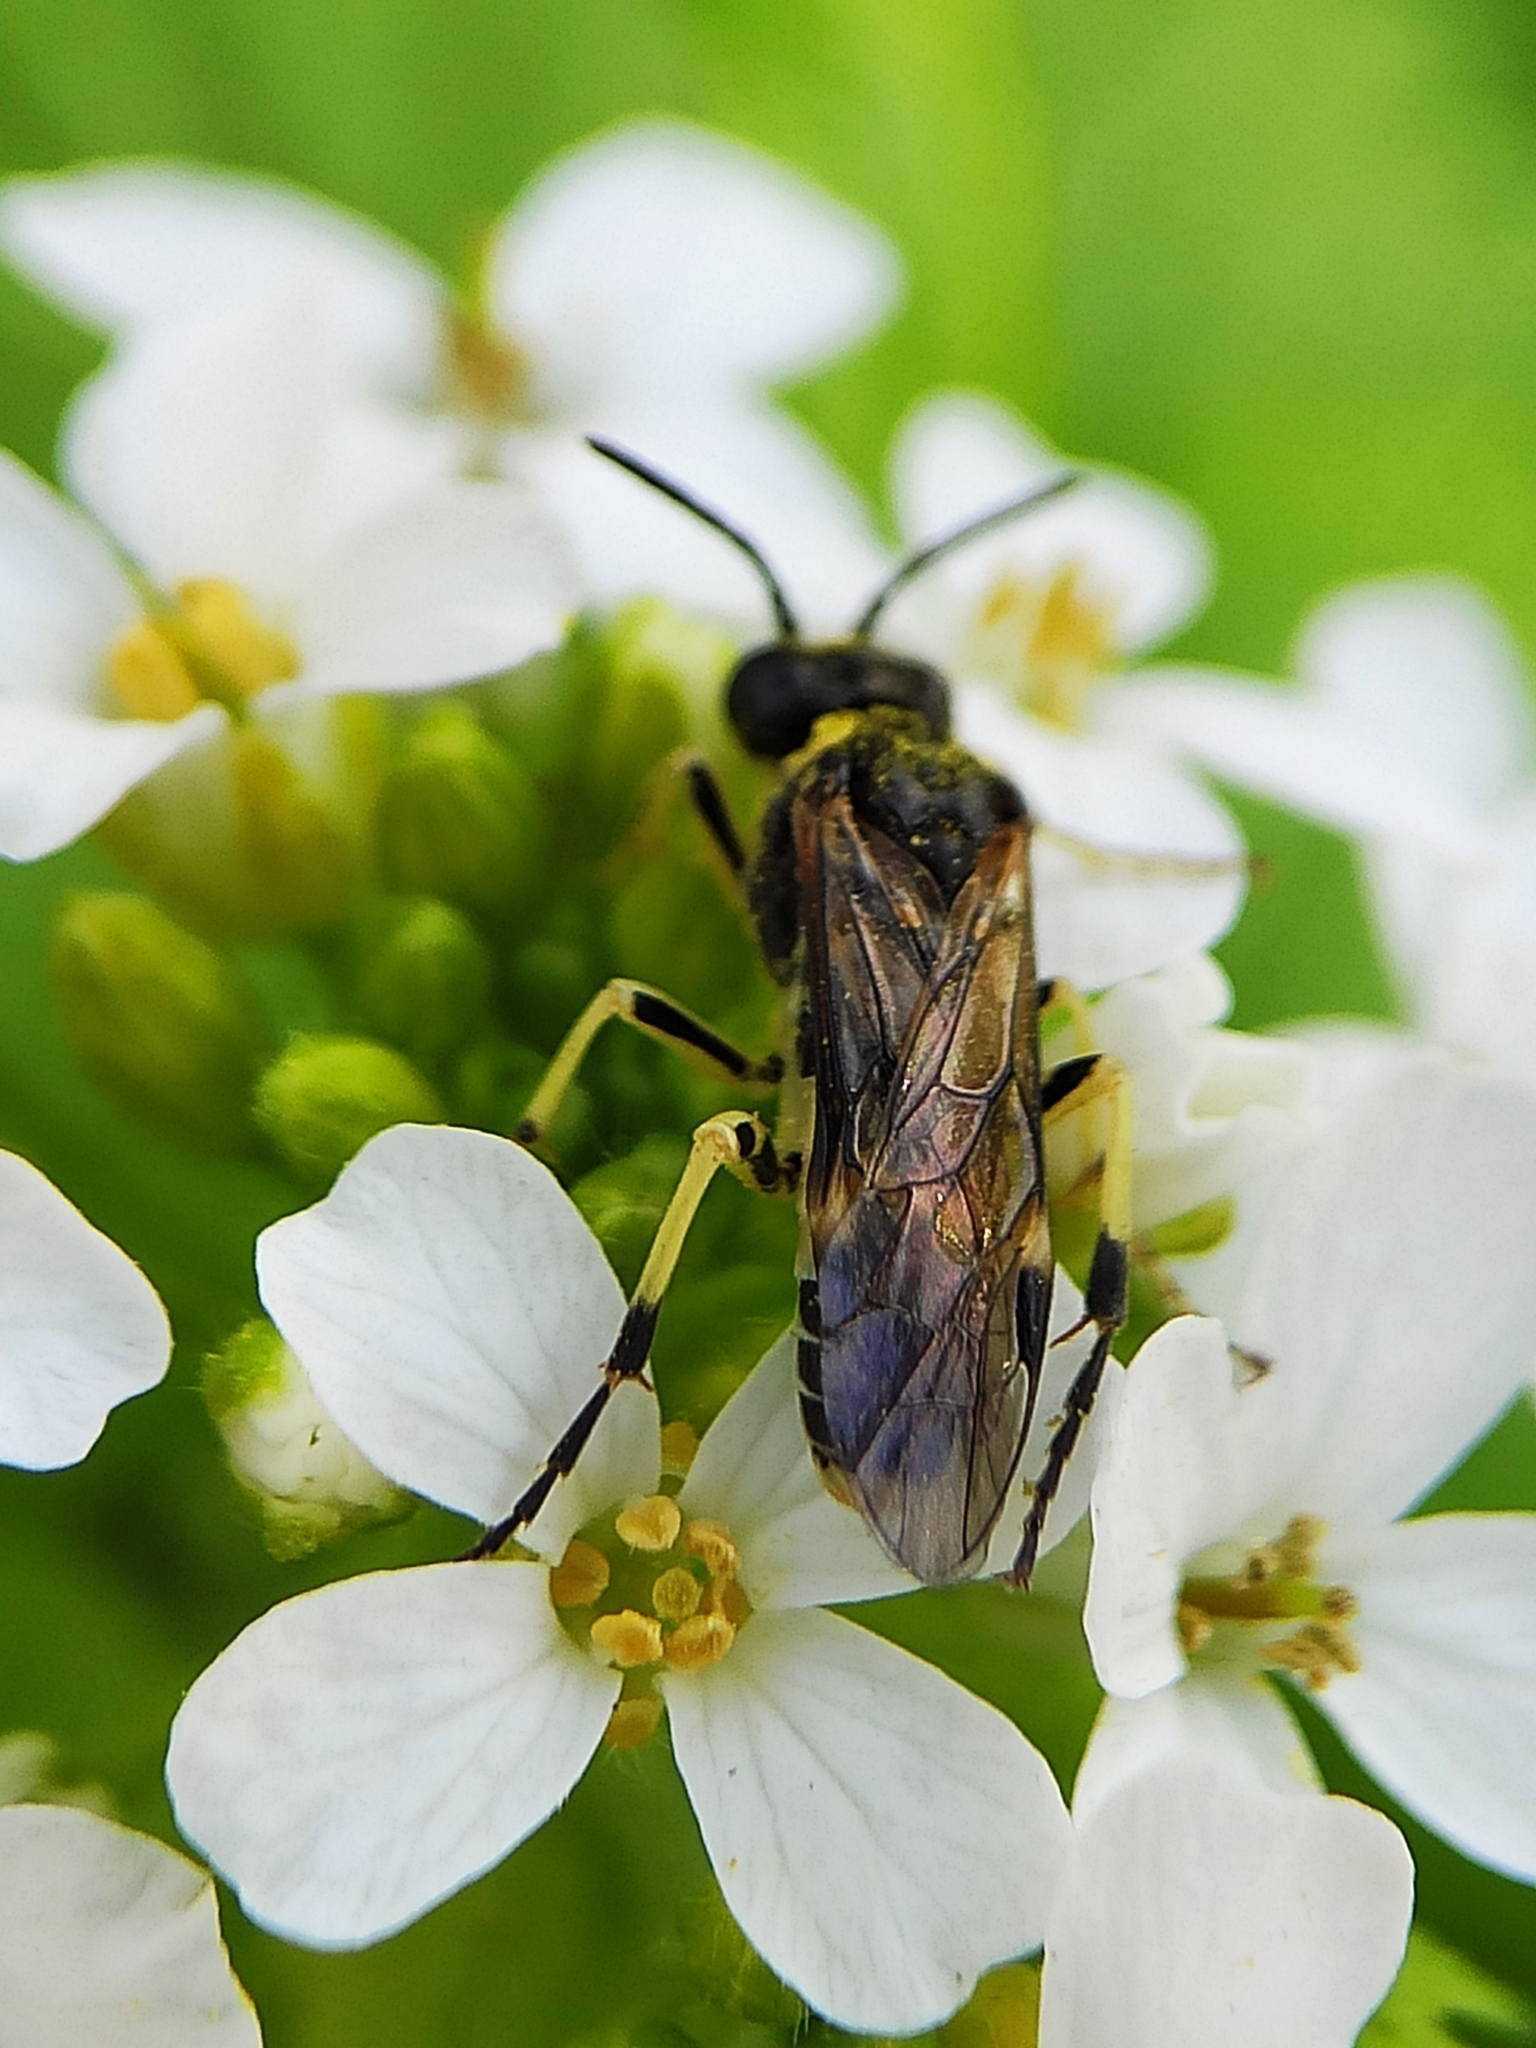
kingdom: Animalia
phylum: Arthropoda
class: Insecta
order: Hymenoptera
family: Tenthredinidae
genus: Tenthredo
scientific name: Tenthredo talyshensis
